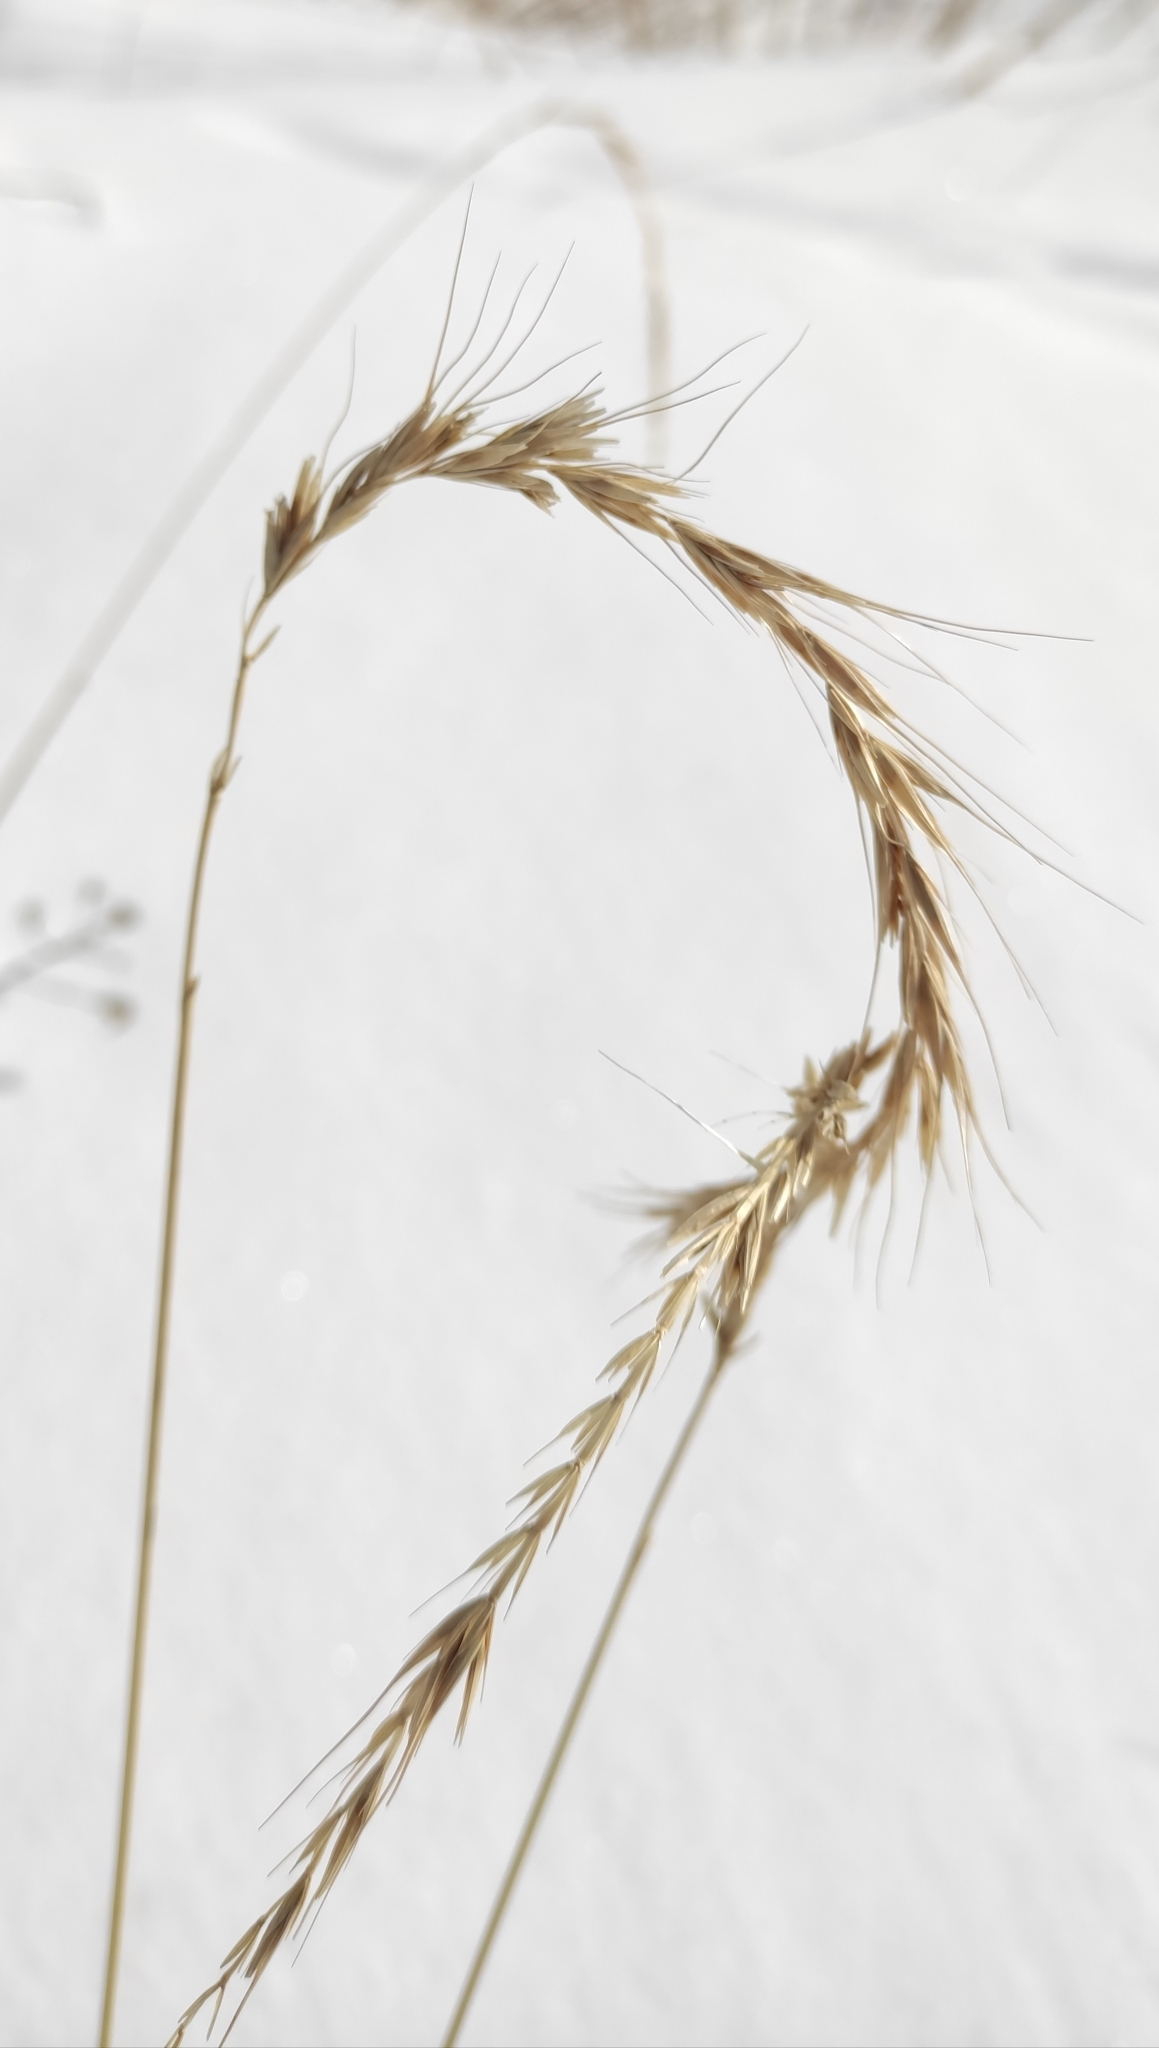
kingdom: Plantae
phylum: Tracheophyta
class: Liliopsida
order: Poales
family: Poaceae
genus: Elymus
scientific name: Elymus sibiricus
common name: Siberian wildrye
